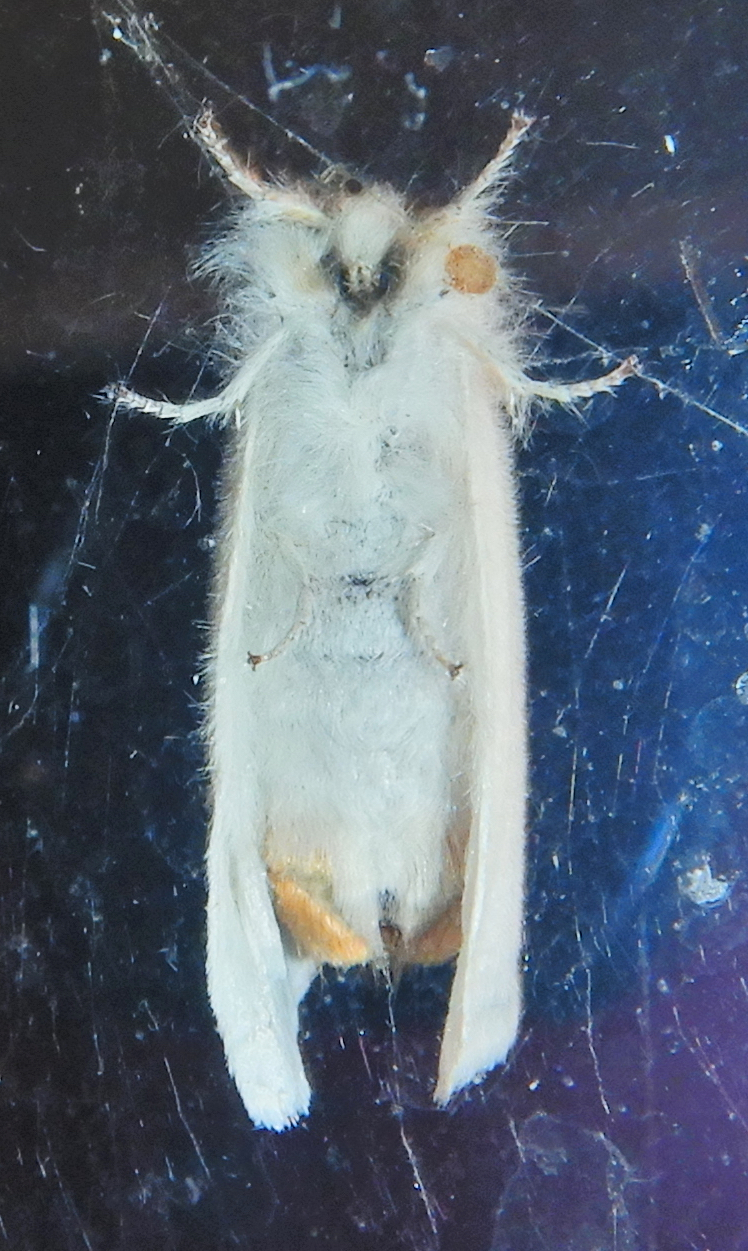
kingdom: Animalia
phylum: Arthropoda
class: Insecta
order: Lepidoptera
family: Erebidae
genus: Euproctis
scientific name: Euproctis chrysorrhoea
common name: Brown-tail
